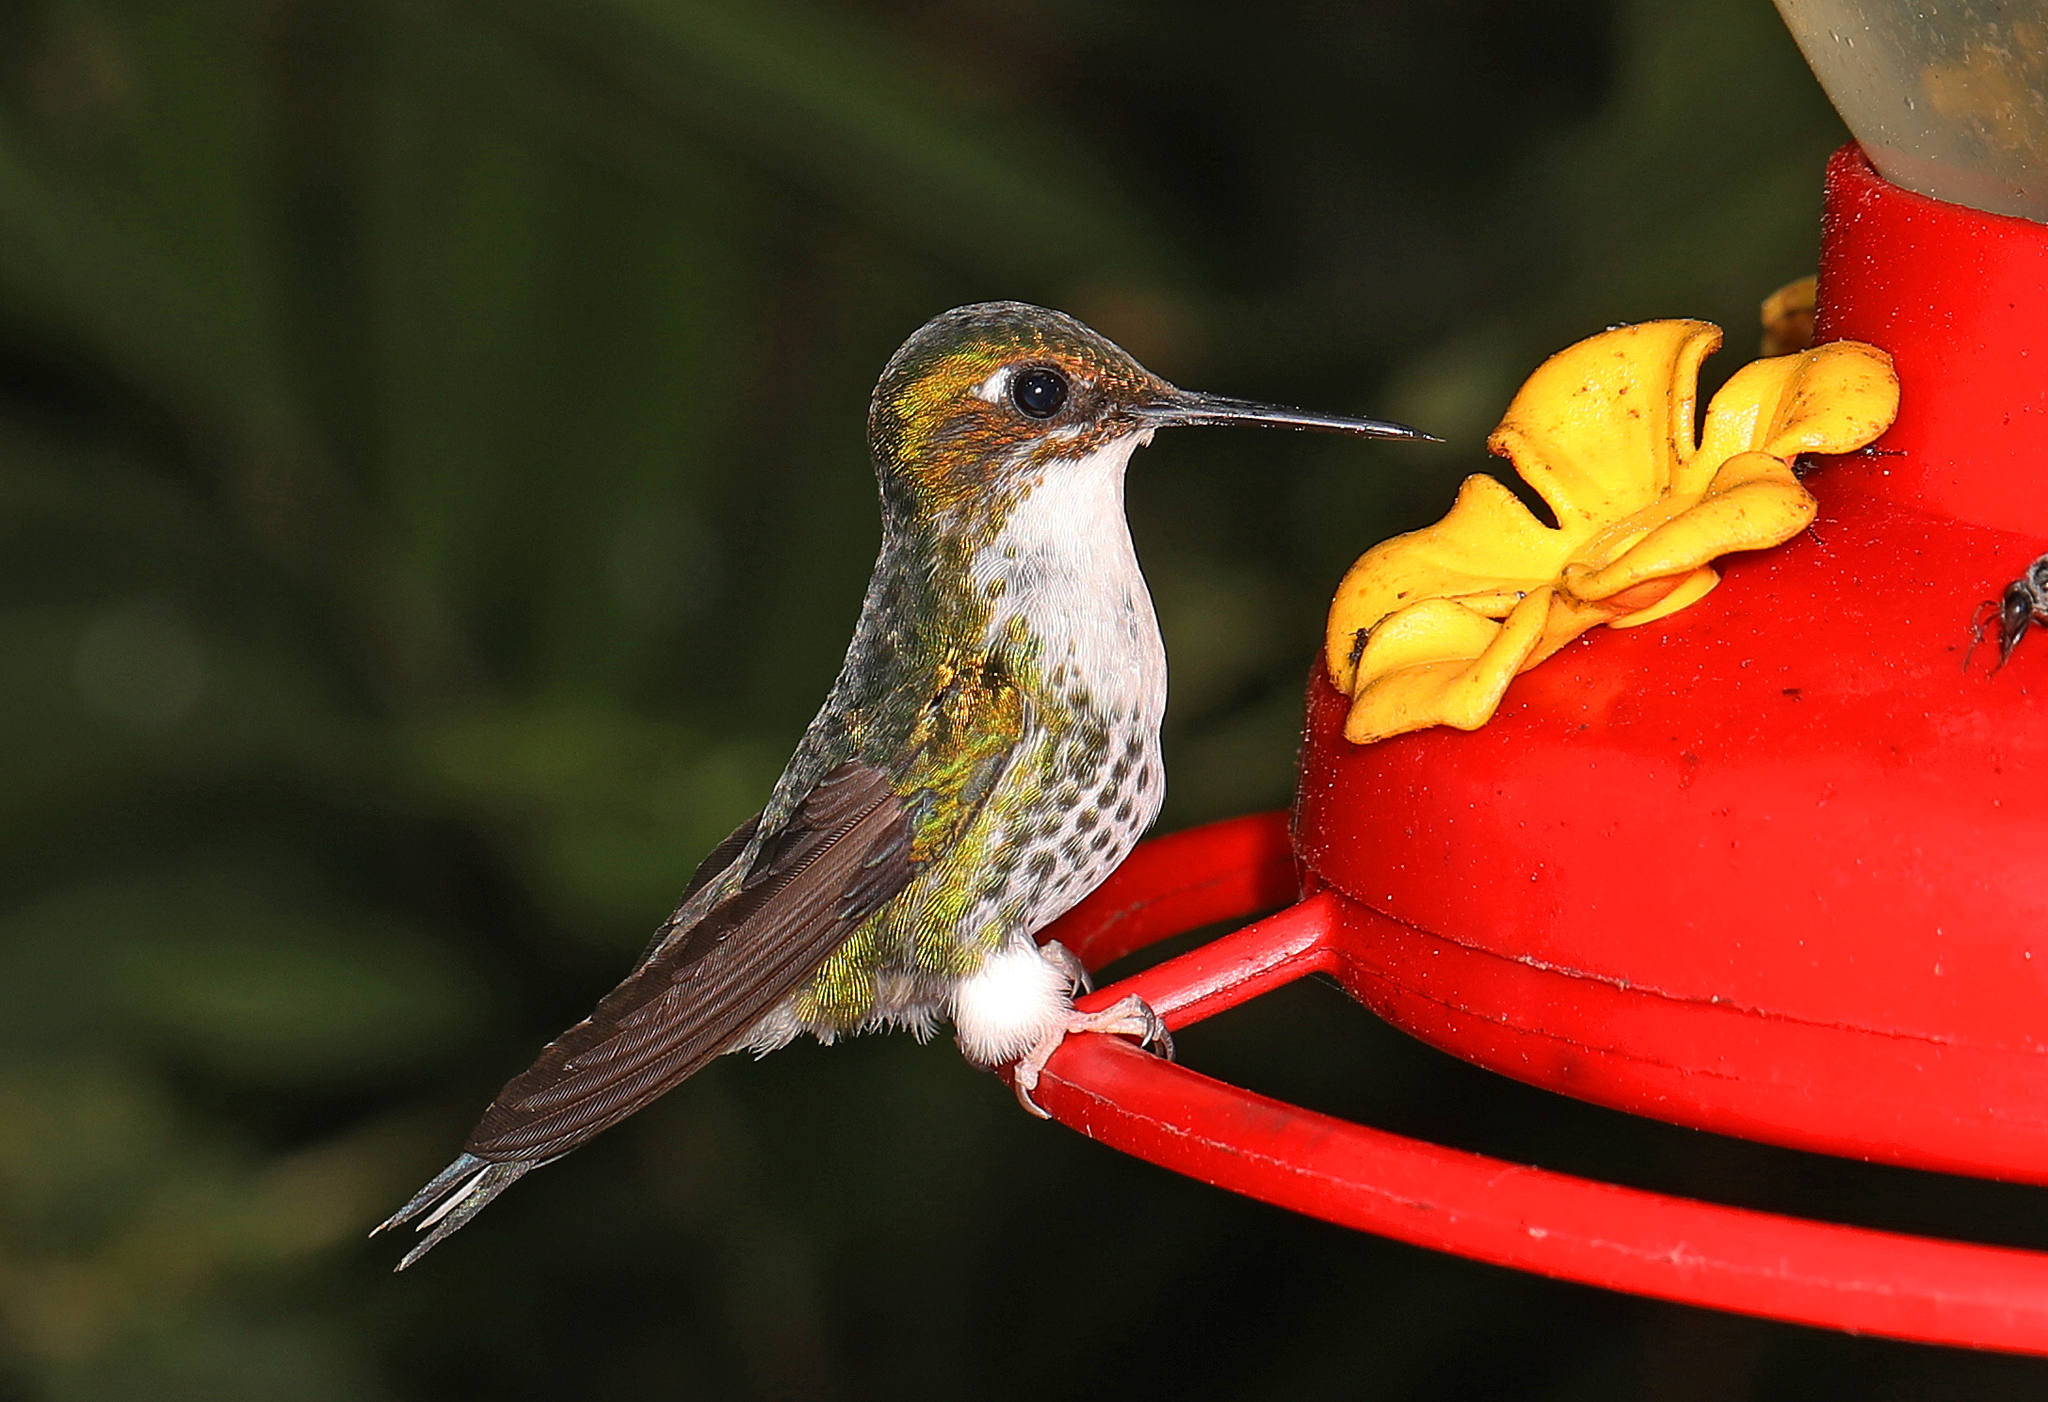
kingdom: Animalia
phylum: Chordata
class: Aves
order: Apodiformes
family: Trochilidae
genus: Ocreatus
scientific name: Ocreatus underwoodii
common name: Booted racket-tail
